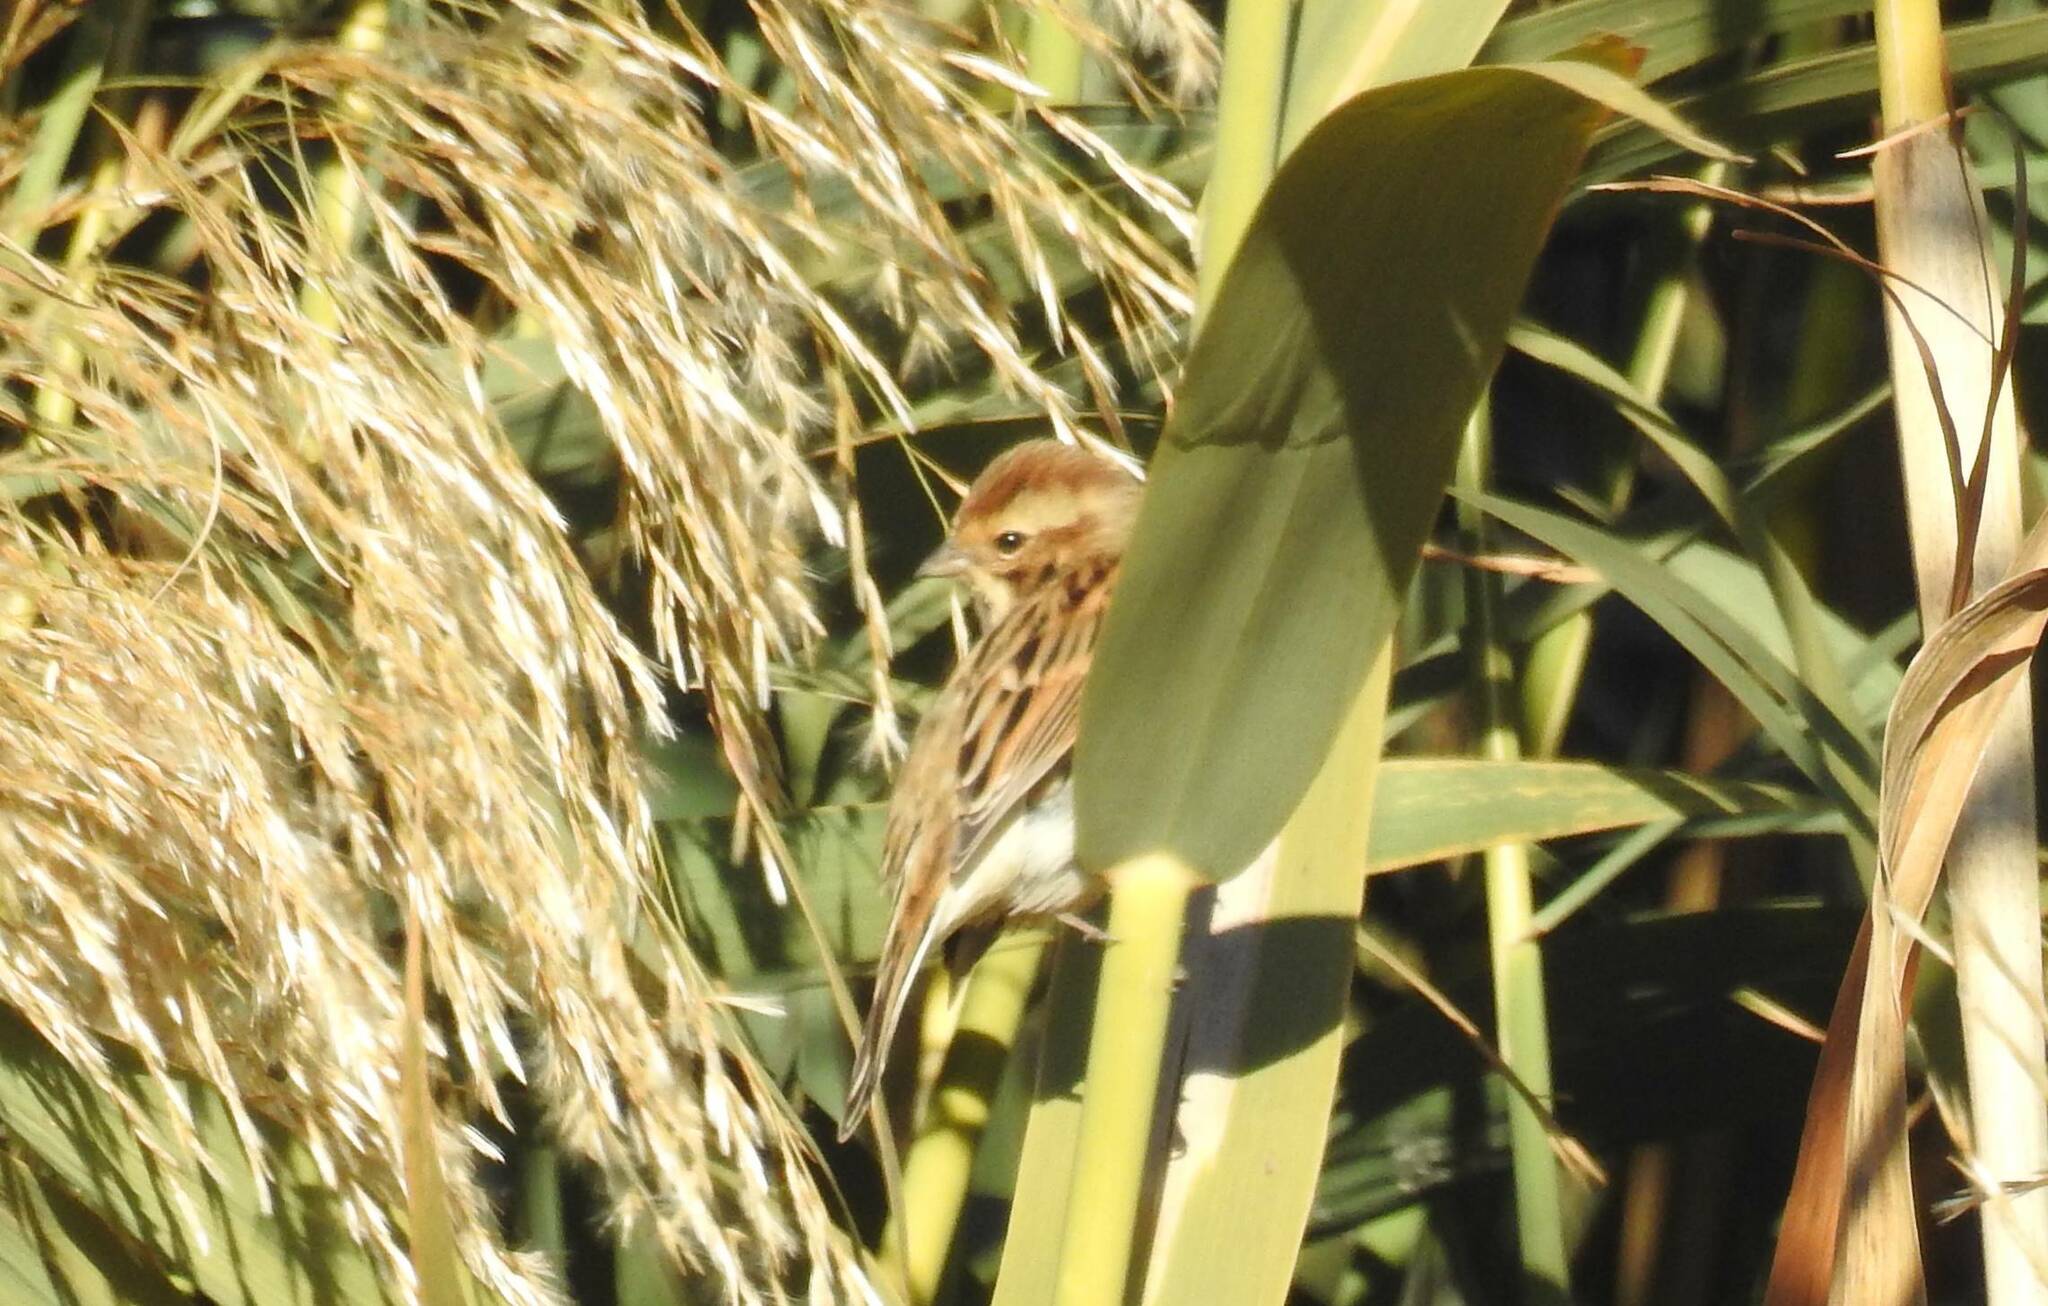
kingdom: Animalia
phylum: Chordata
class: Aves
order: Passeriformes
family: Emberizidae
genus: Emberiza
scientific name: Emberiza schoeniclus
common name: Reed bunting
